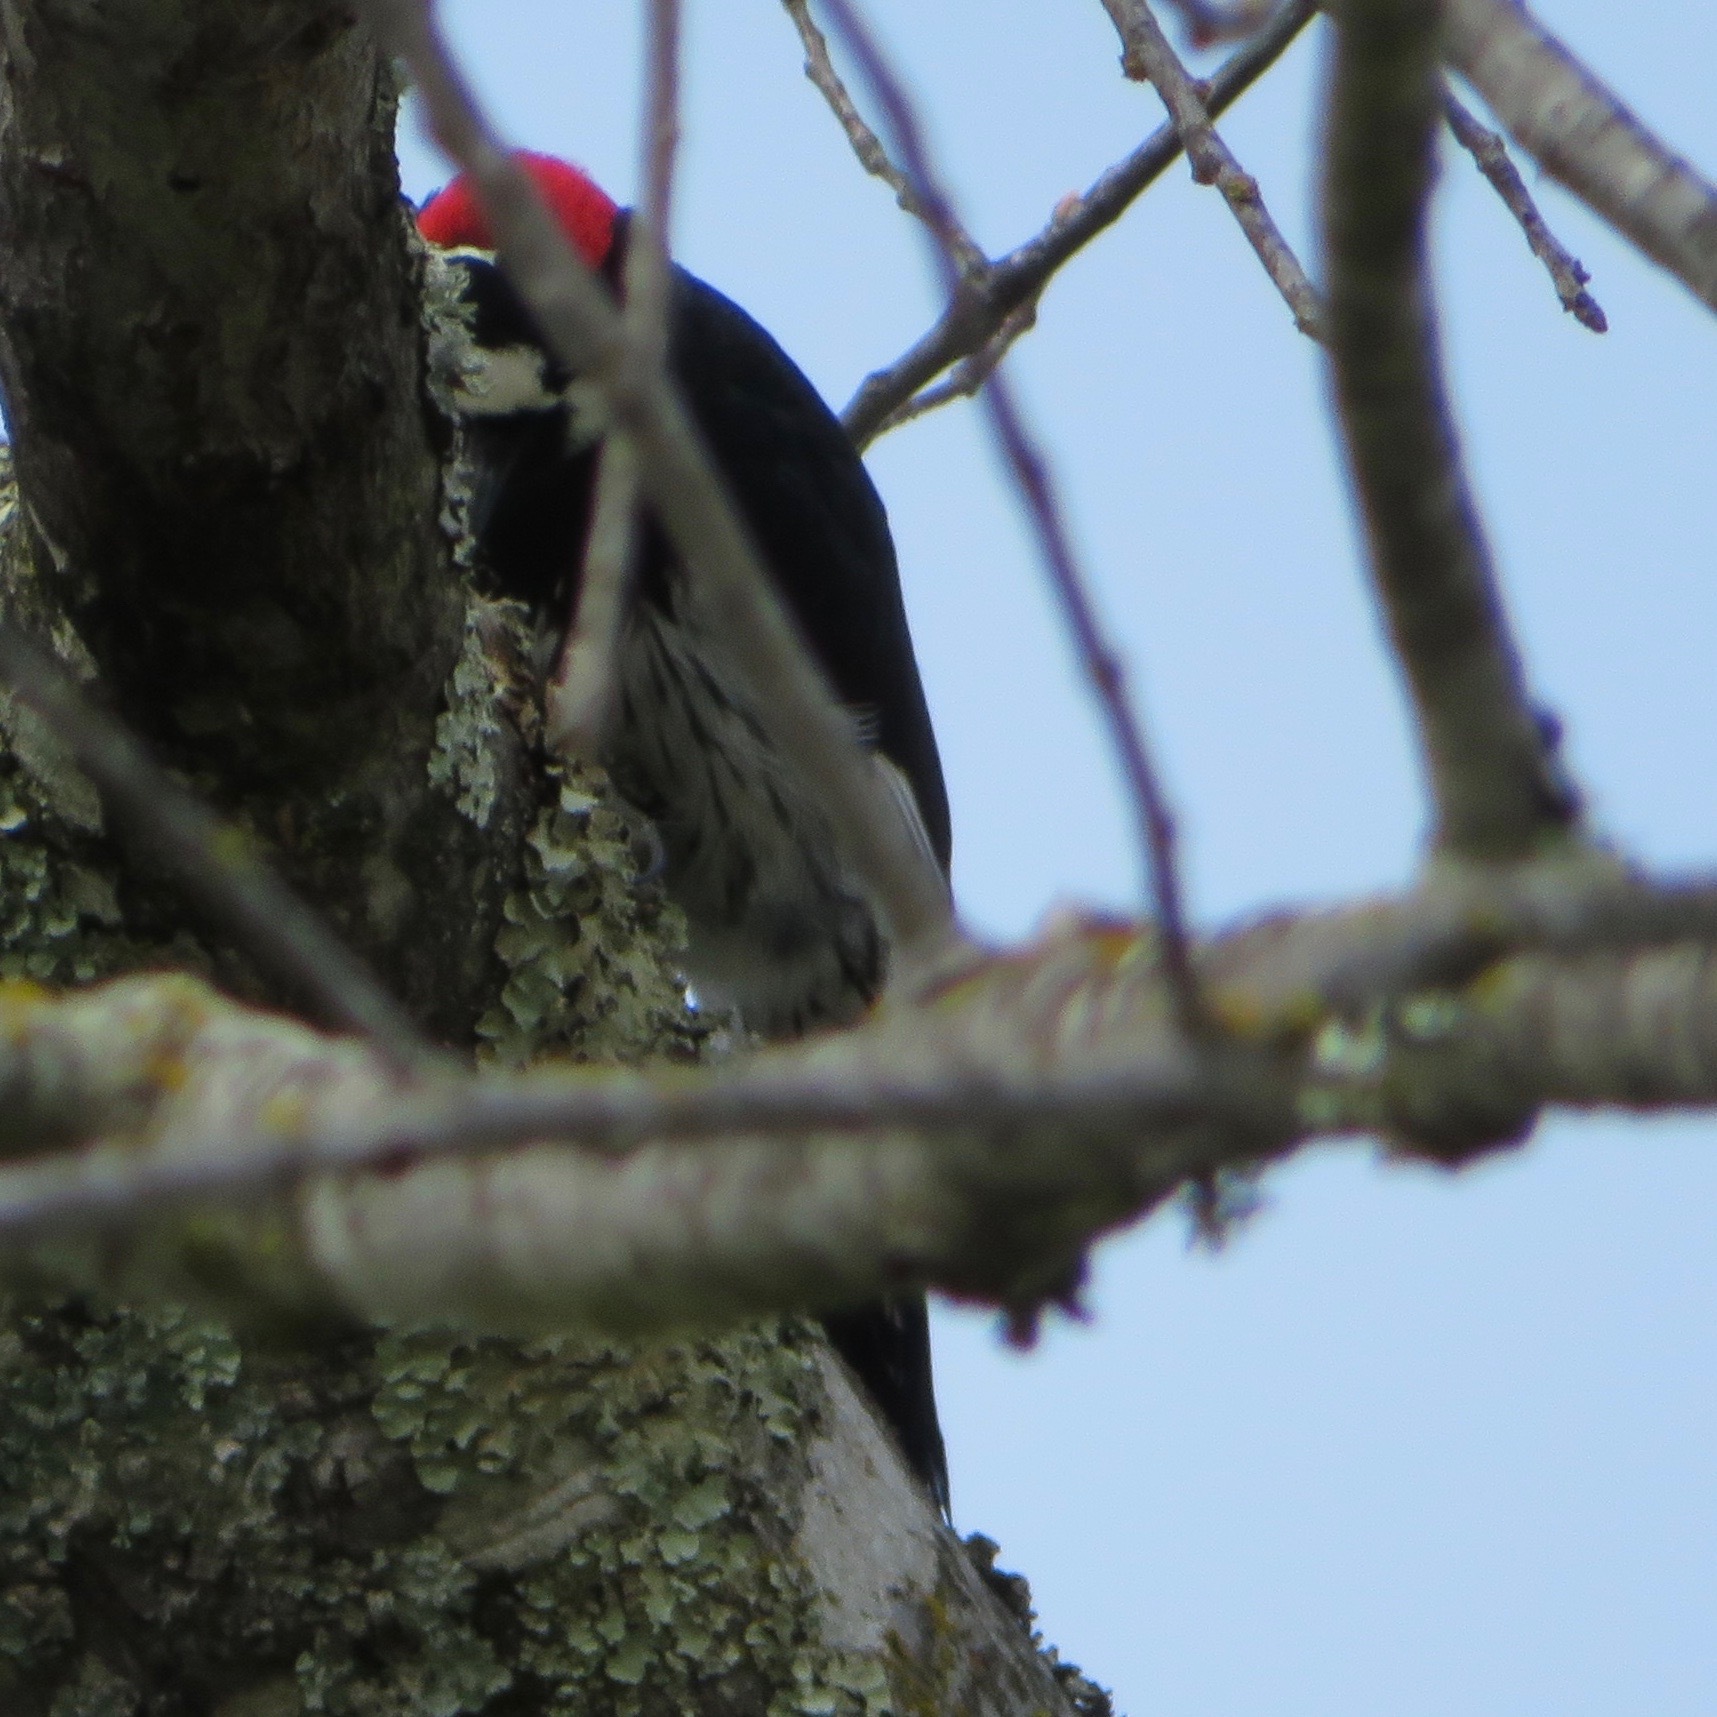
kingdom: Animalia
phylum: Chordata
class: Aves
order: Piciformes
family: Picidae
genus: Melanerpes
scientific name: Melanerpes formicivorus
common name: Acorn woodpecker
